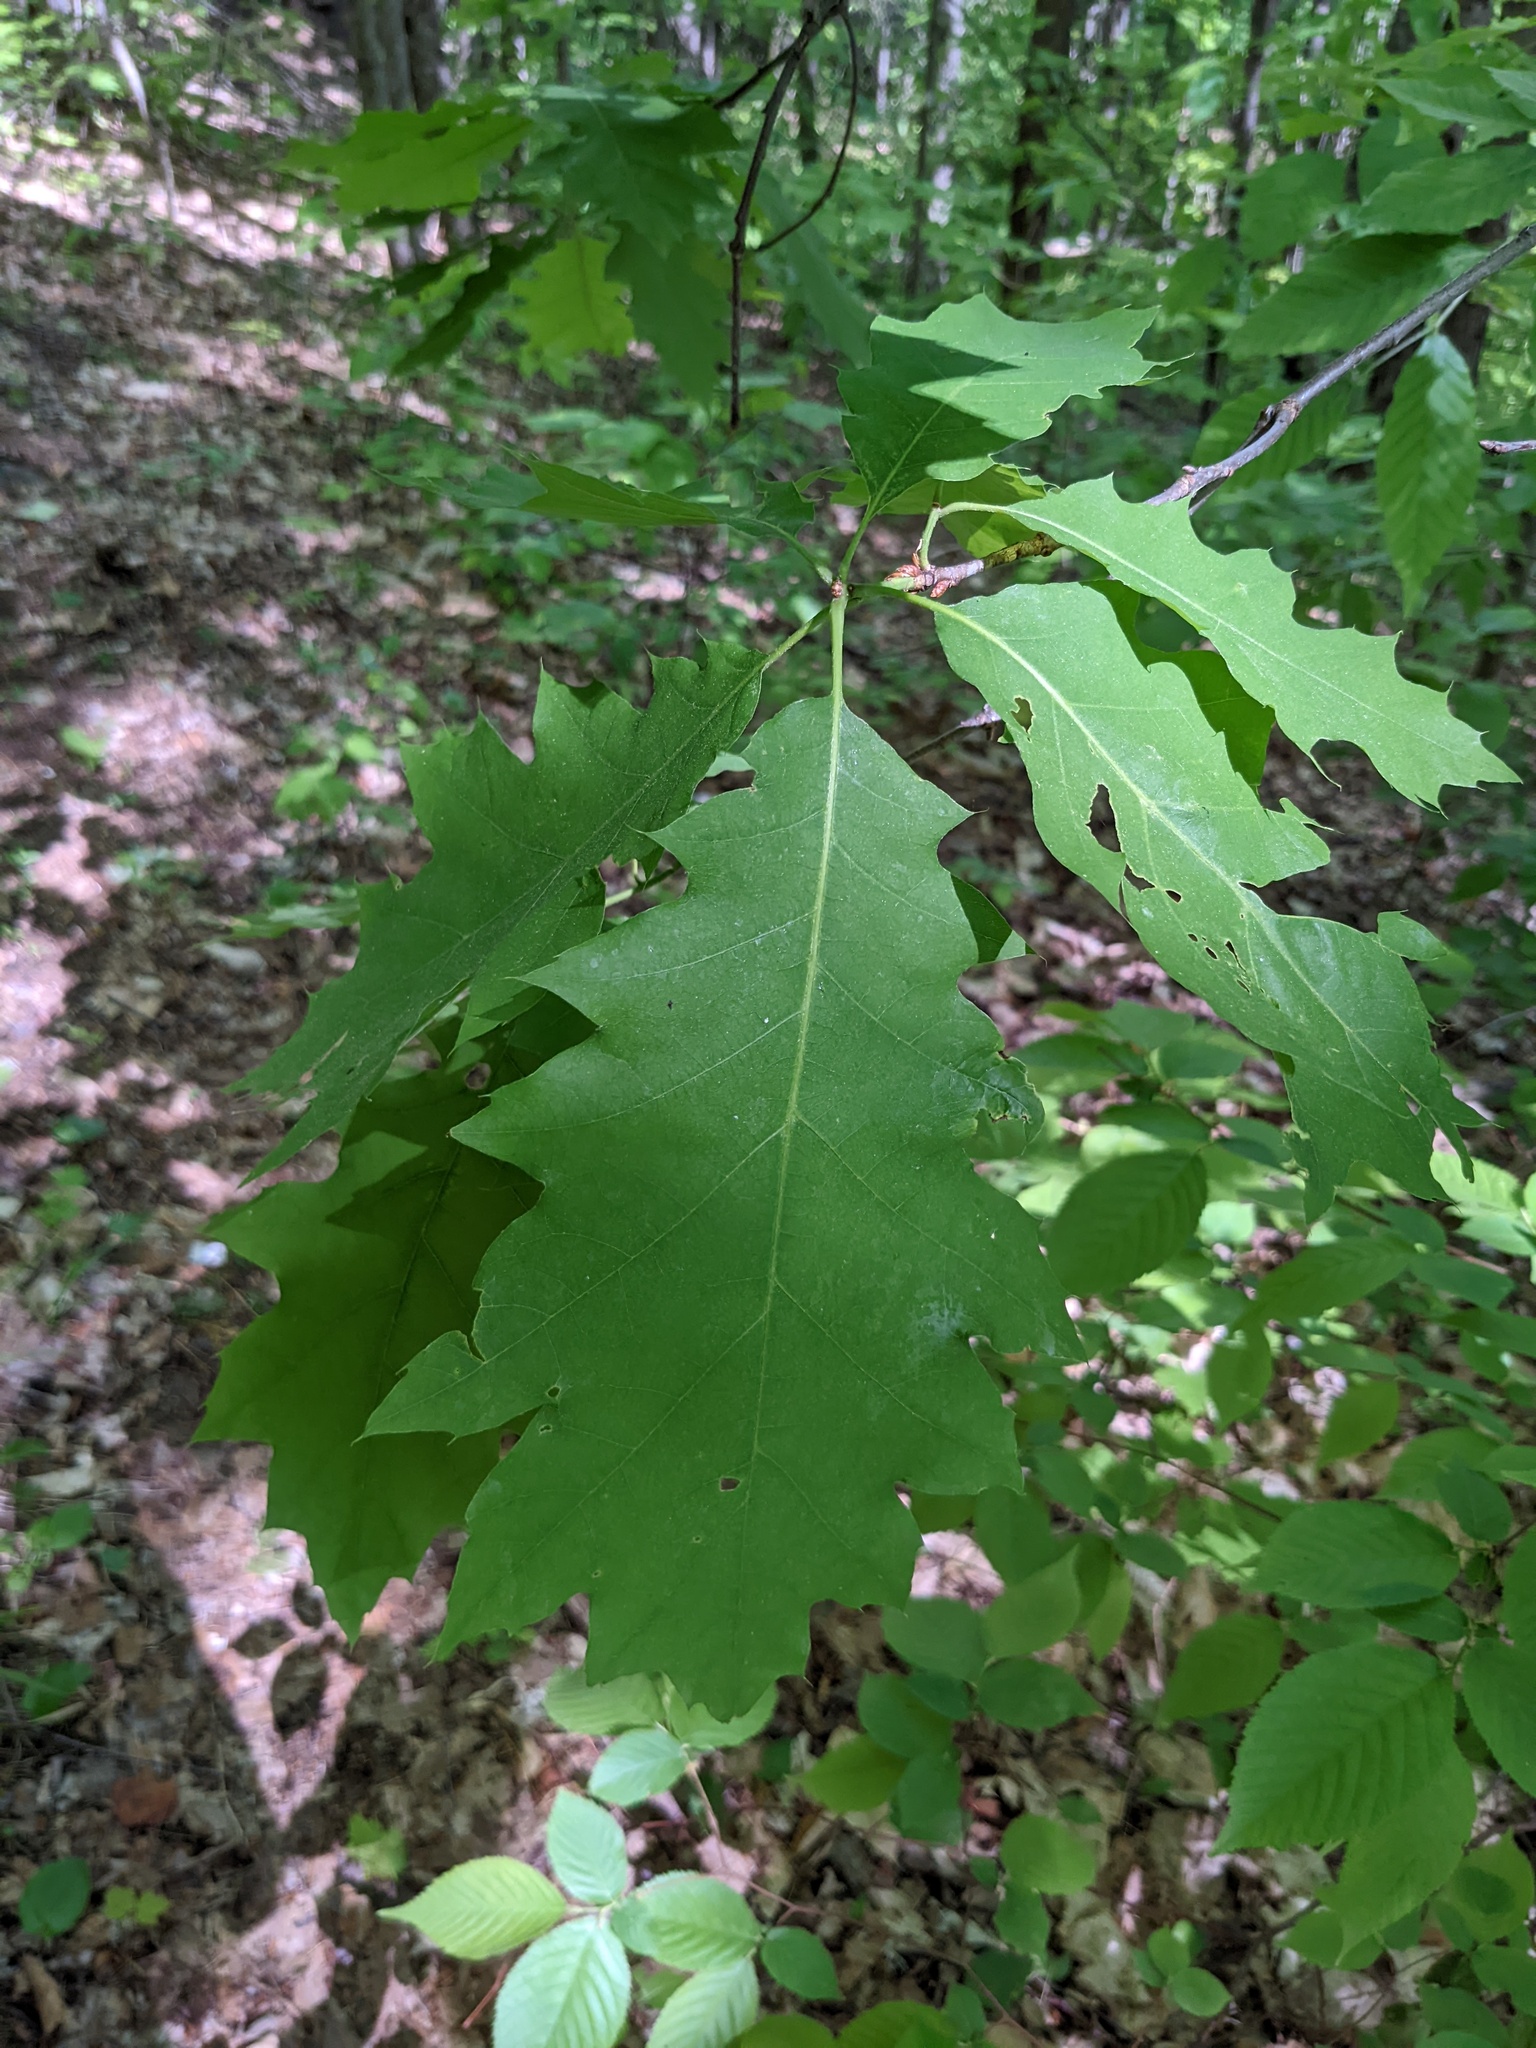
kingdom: Plantae
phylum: Tracheophyta
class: Magnoliopsida
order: Fagales
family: Fagaceae
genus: Quercus
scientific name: Quercus rubra
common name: Red oak
